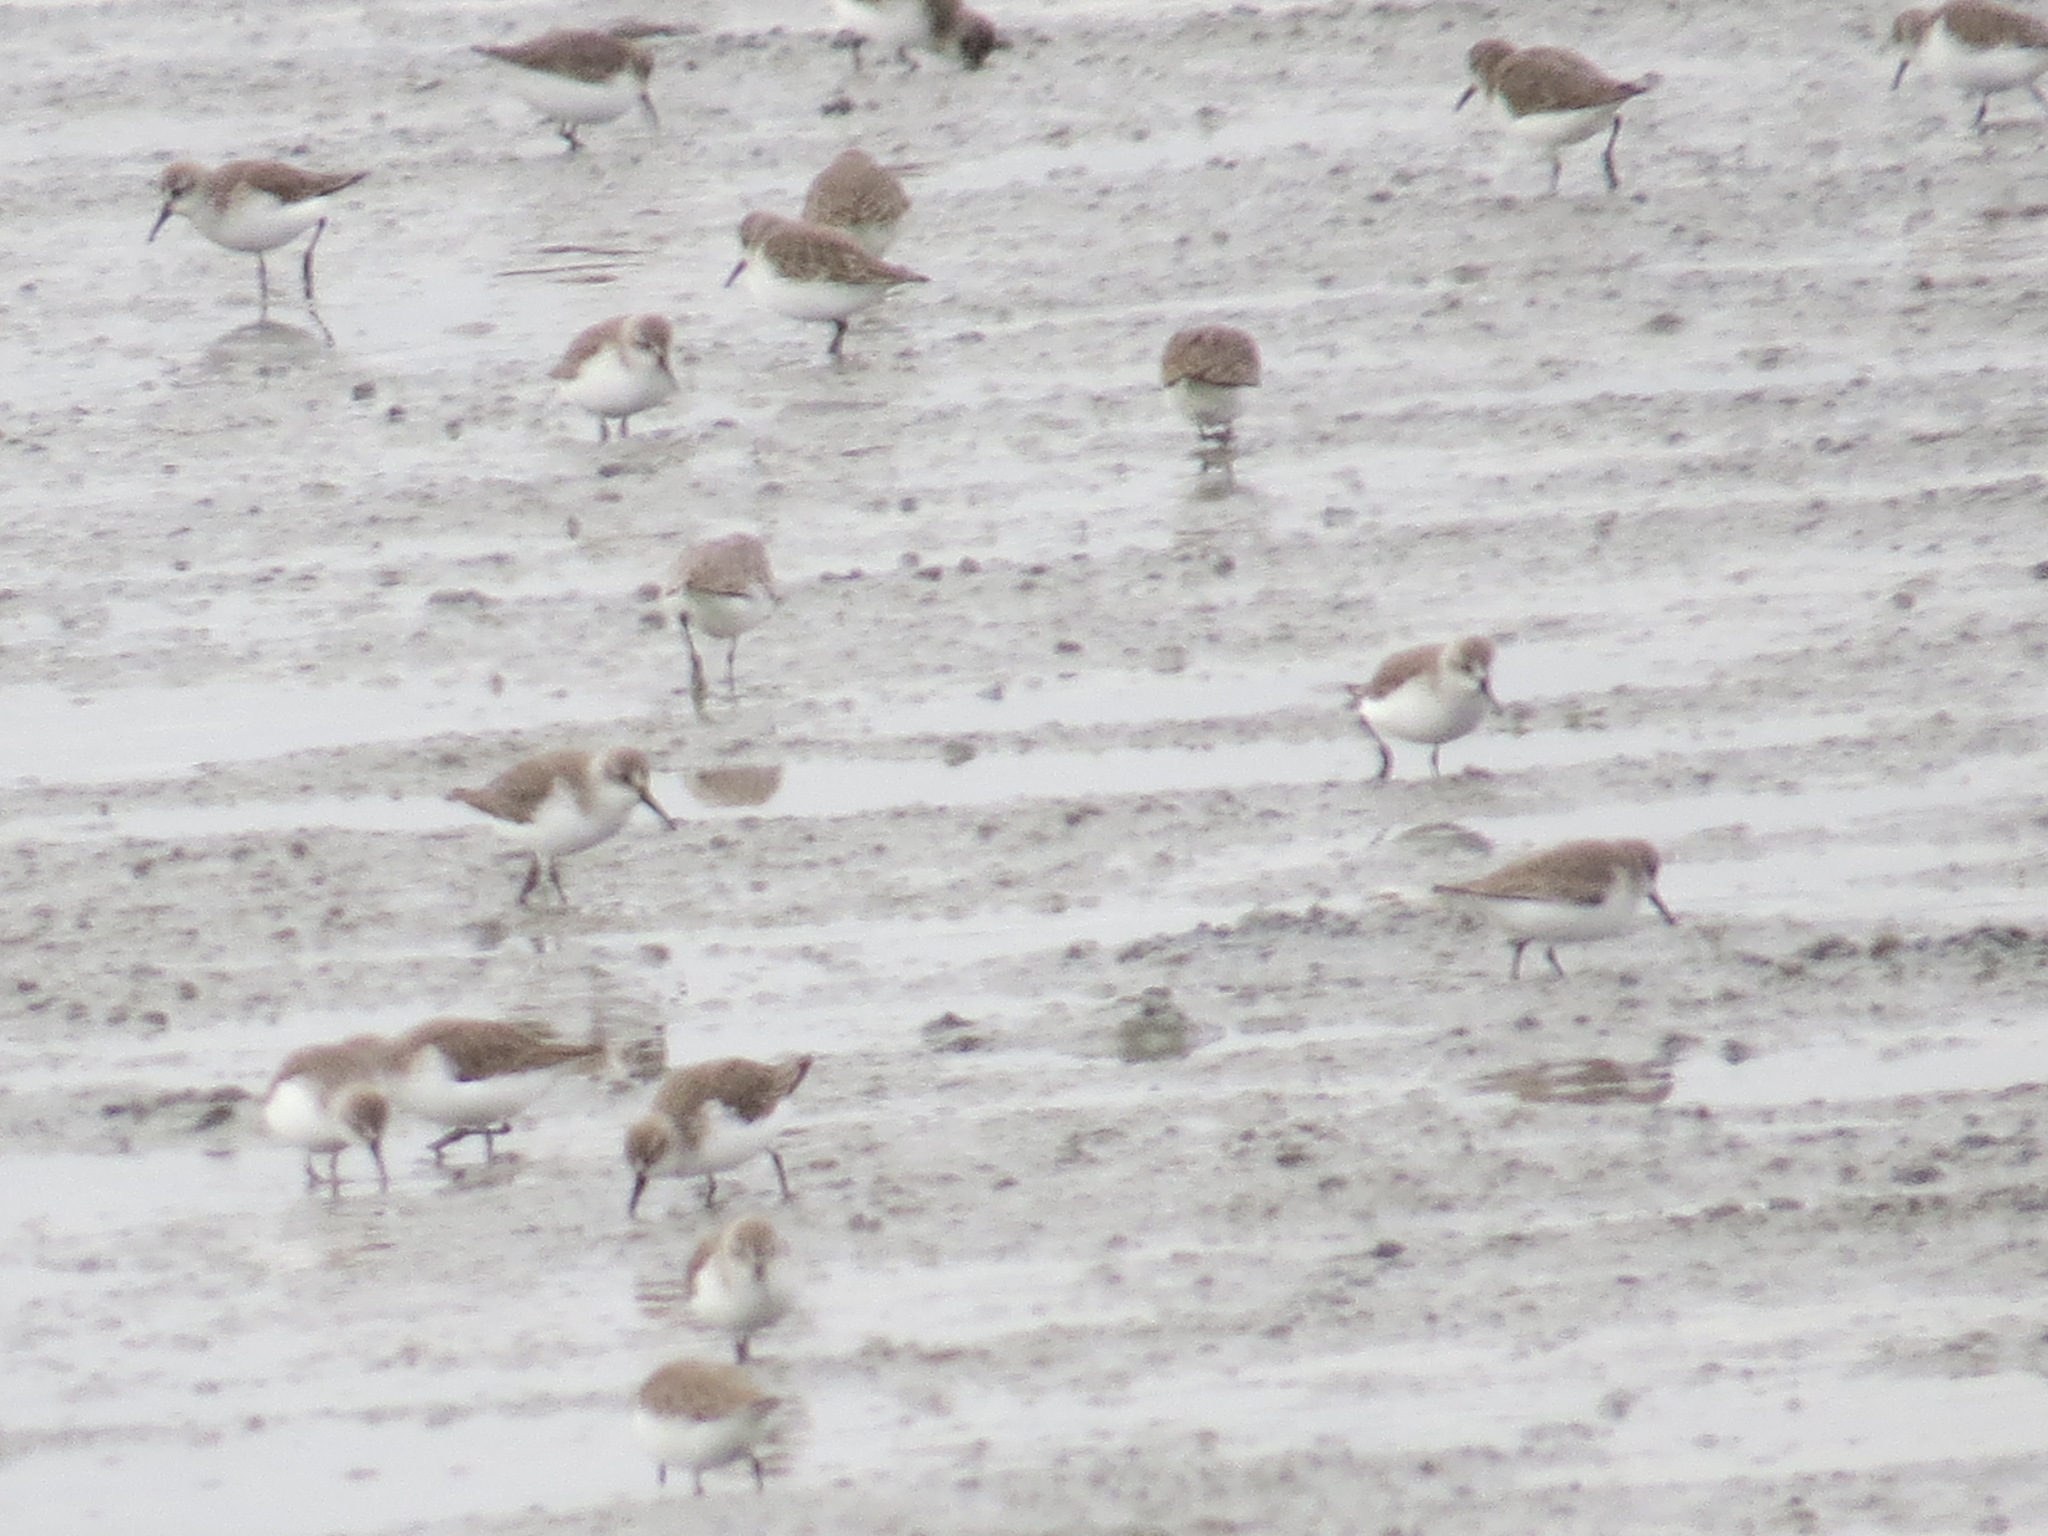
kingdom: Animalia
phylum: Chordata
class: Aves
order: Charadriiformes
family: Scolopacidae
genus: Calidris
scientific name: Calidris mauri
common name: Western sandpiper
